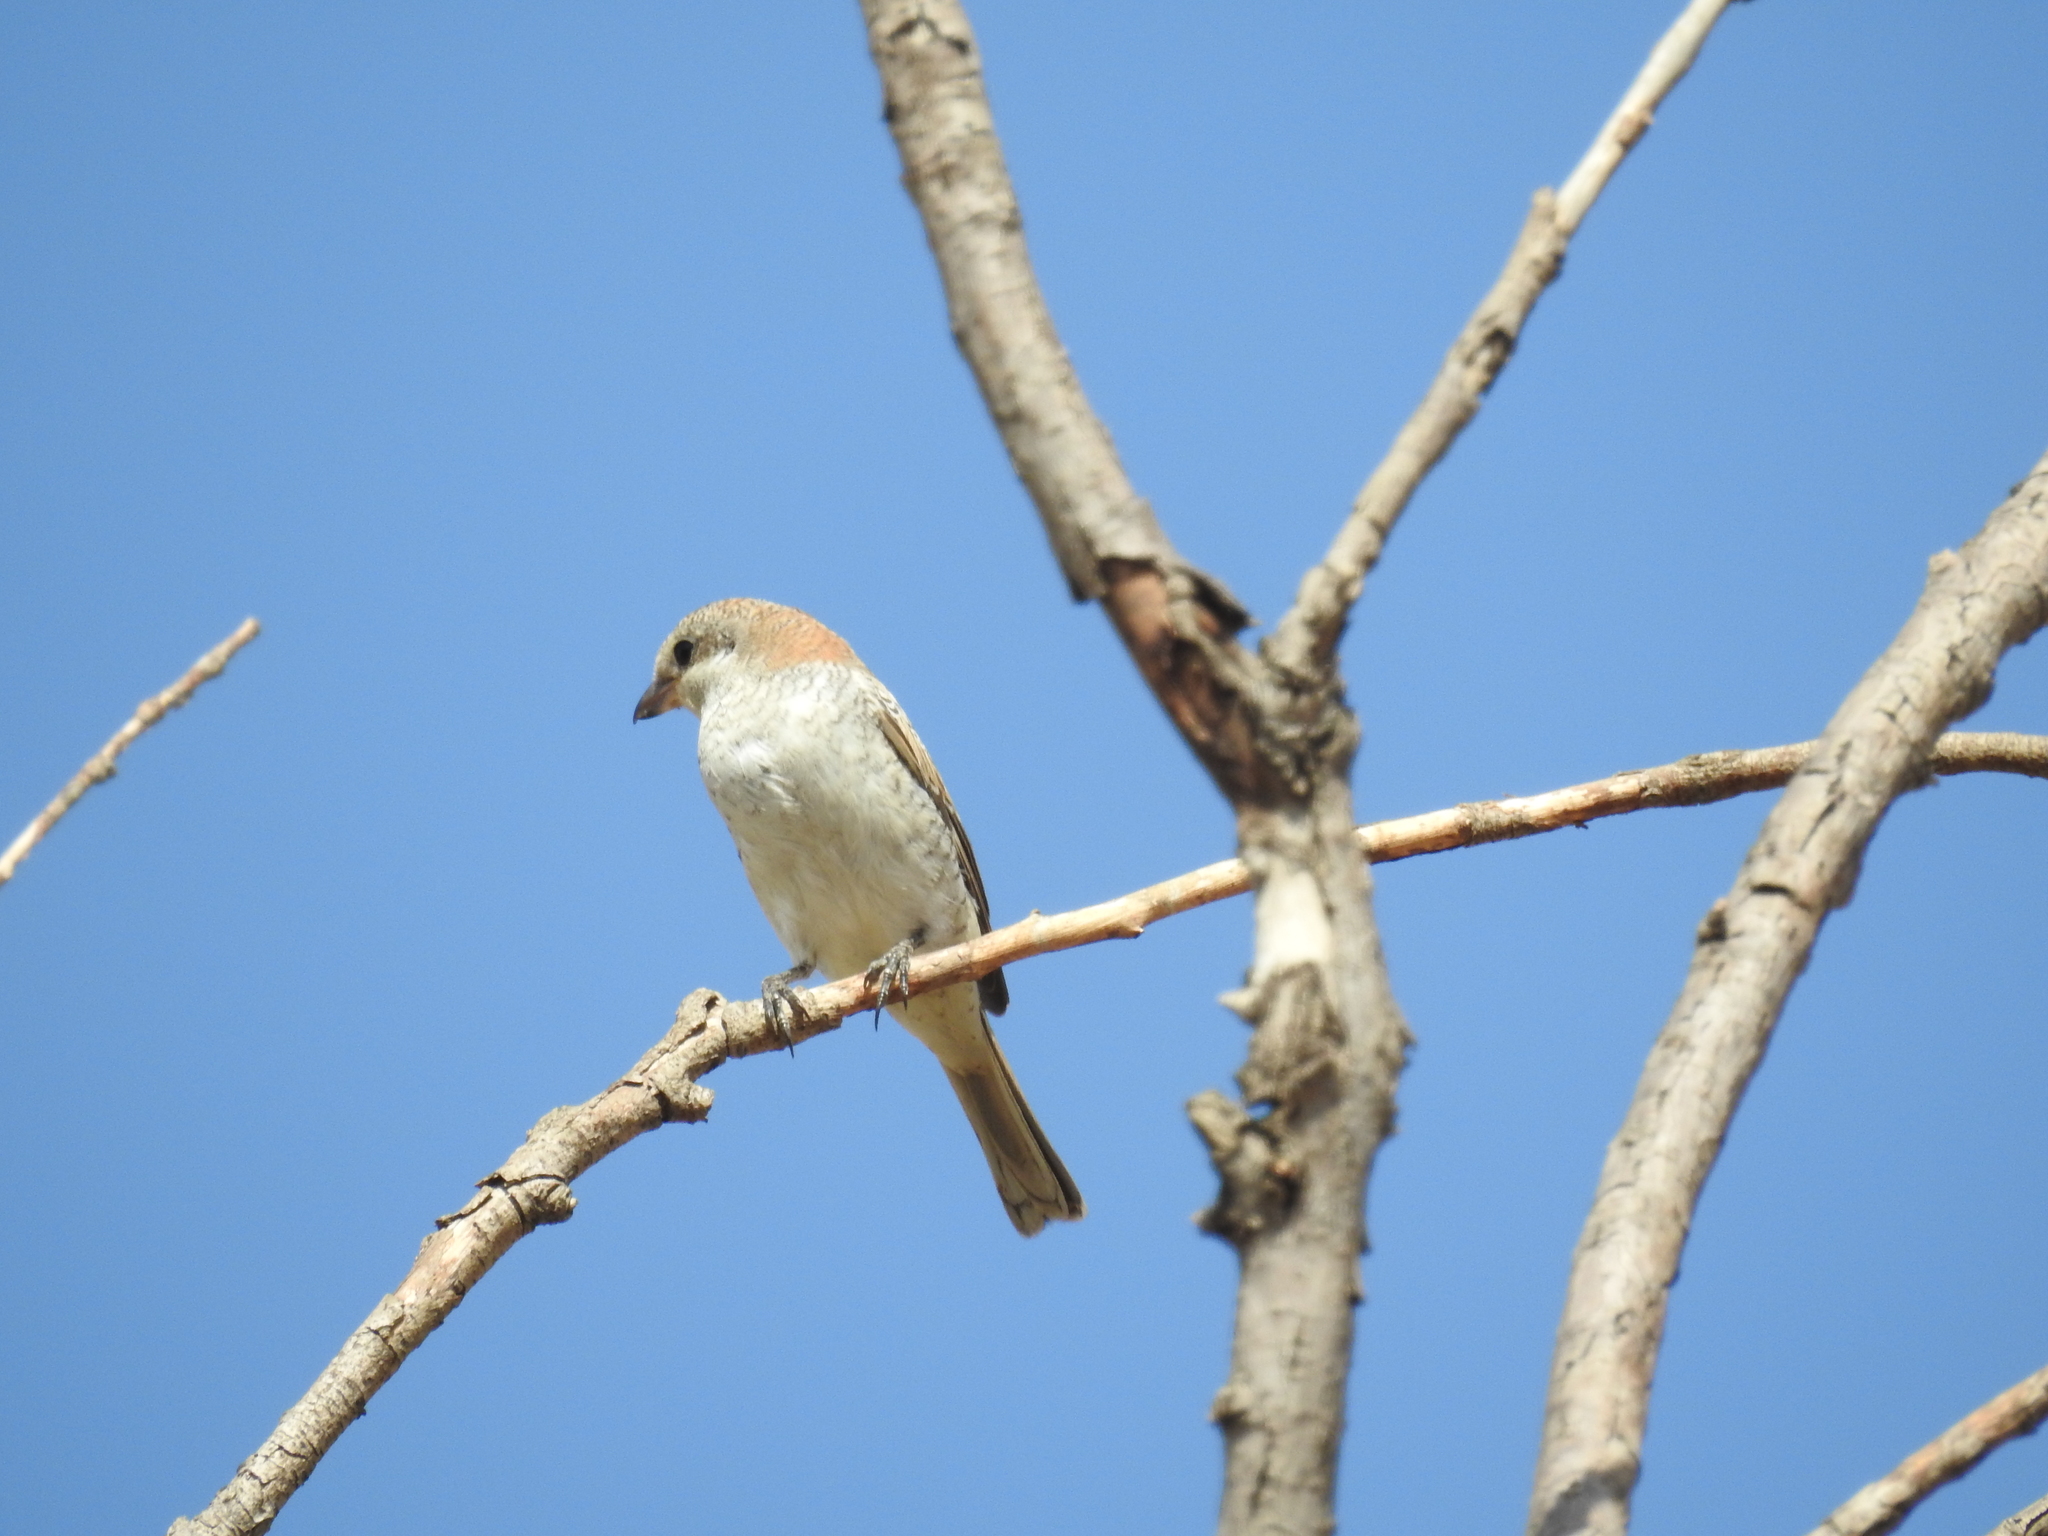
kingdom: Animalia
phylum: Chordata
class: Aves
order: Passeriformes
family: Laniidae
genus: Lanius
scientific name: Lanius senator
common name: Woodchat shrike
